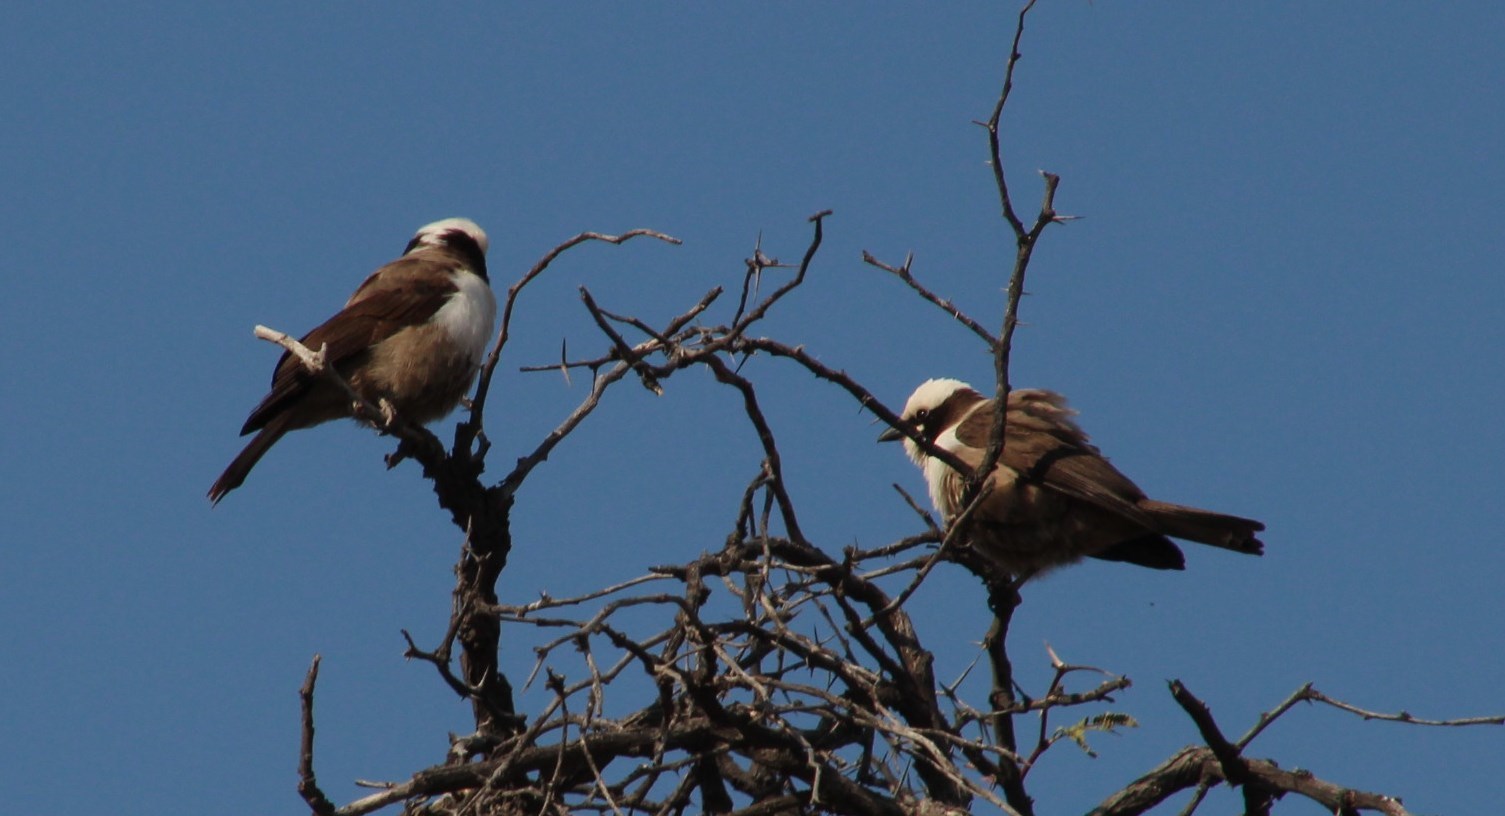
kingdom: Animalia
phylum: Chordata
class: Aves
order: Passeriformes
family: Laniidae
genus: Eurocephalus
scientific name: Eurocephalus anguitimens
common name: Southern white-crowned shrike
